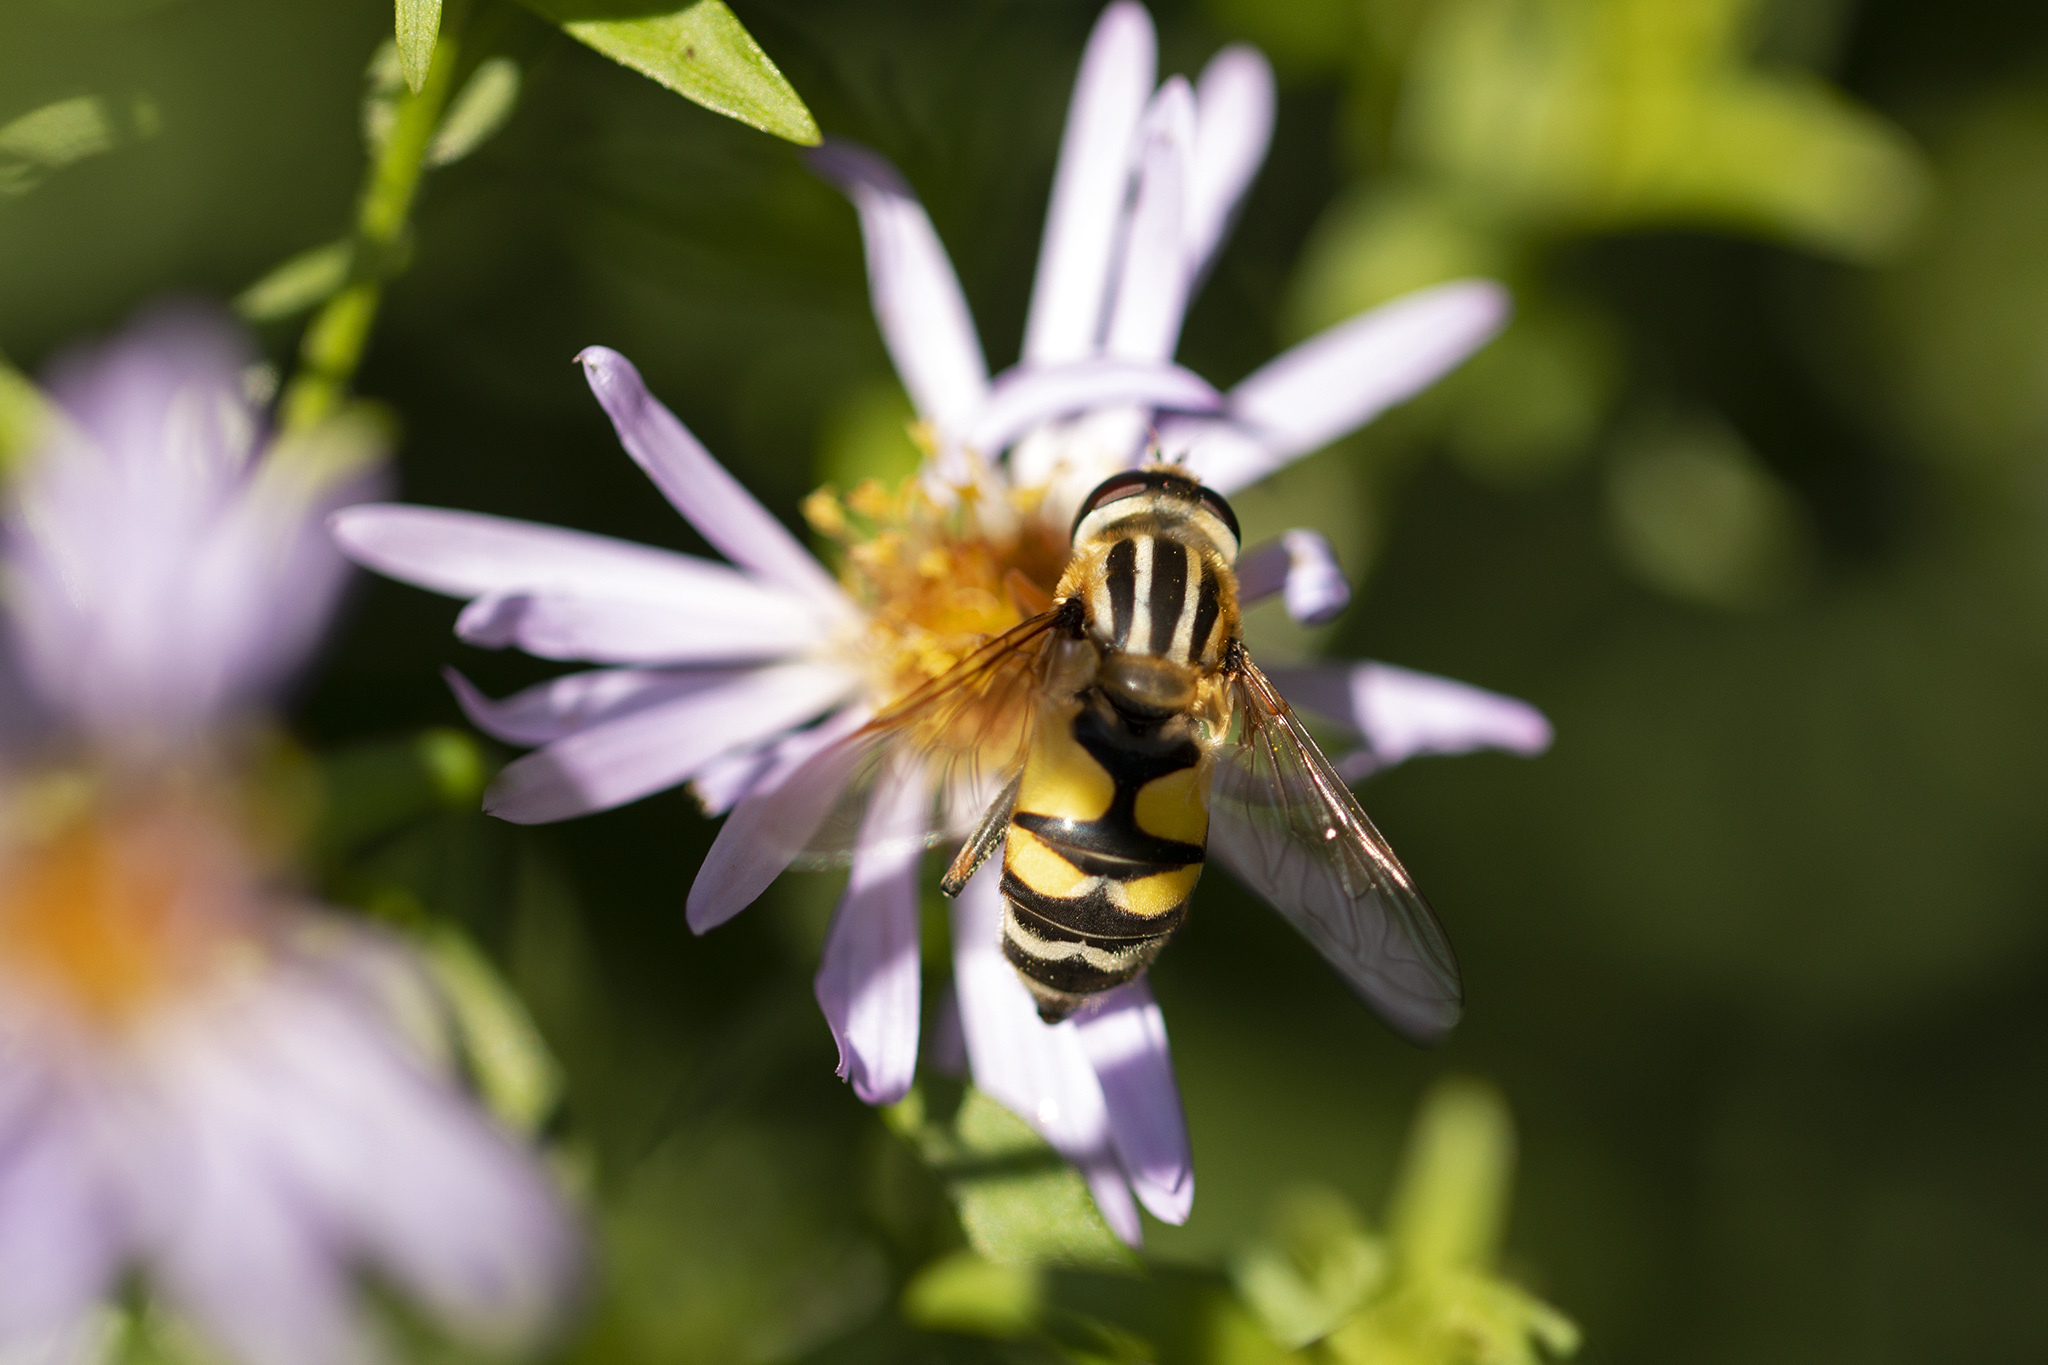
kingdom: Animalia
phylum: Arthropoda
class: Insecta
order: Diptera
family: Syrphidae
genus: Helophilus
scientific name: Helophilus trivittatus
